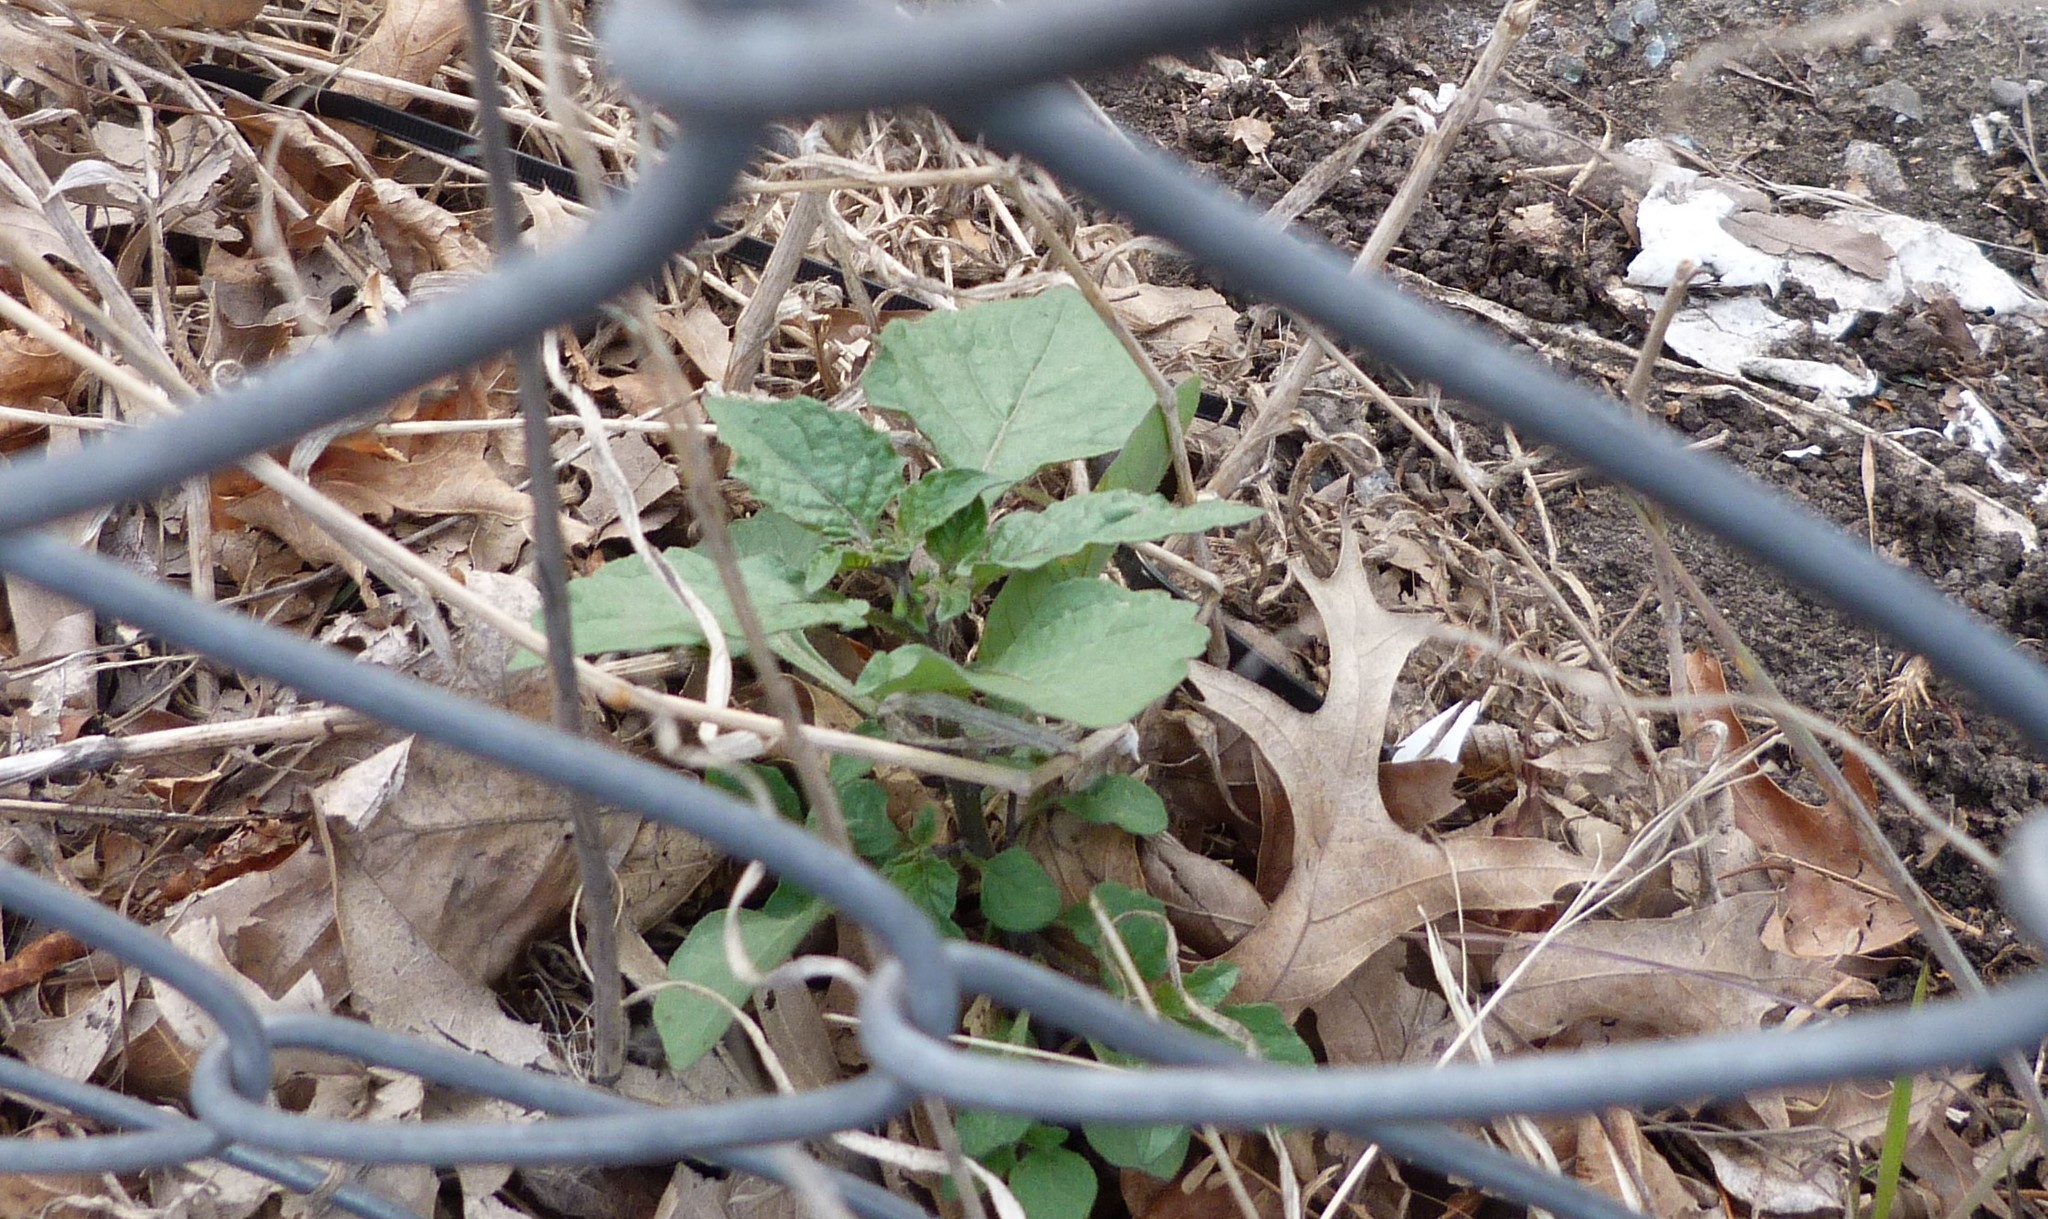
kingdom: Plantae
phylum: Tracheophyta
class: Magnoliopsida
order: Solanales
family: Solanaceae
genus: Solanum
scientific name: Solanum nigrum
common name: Black nightshade
